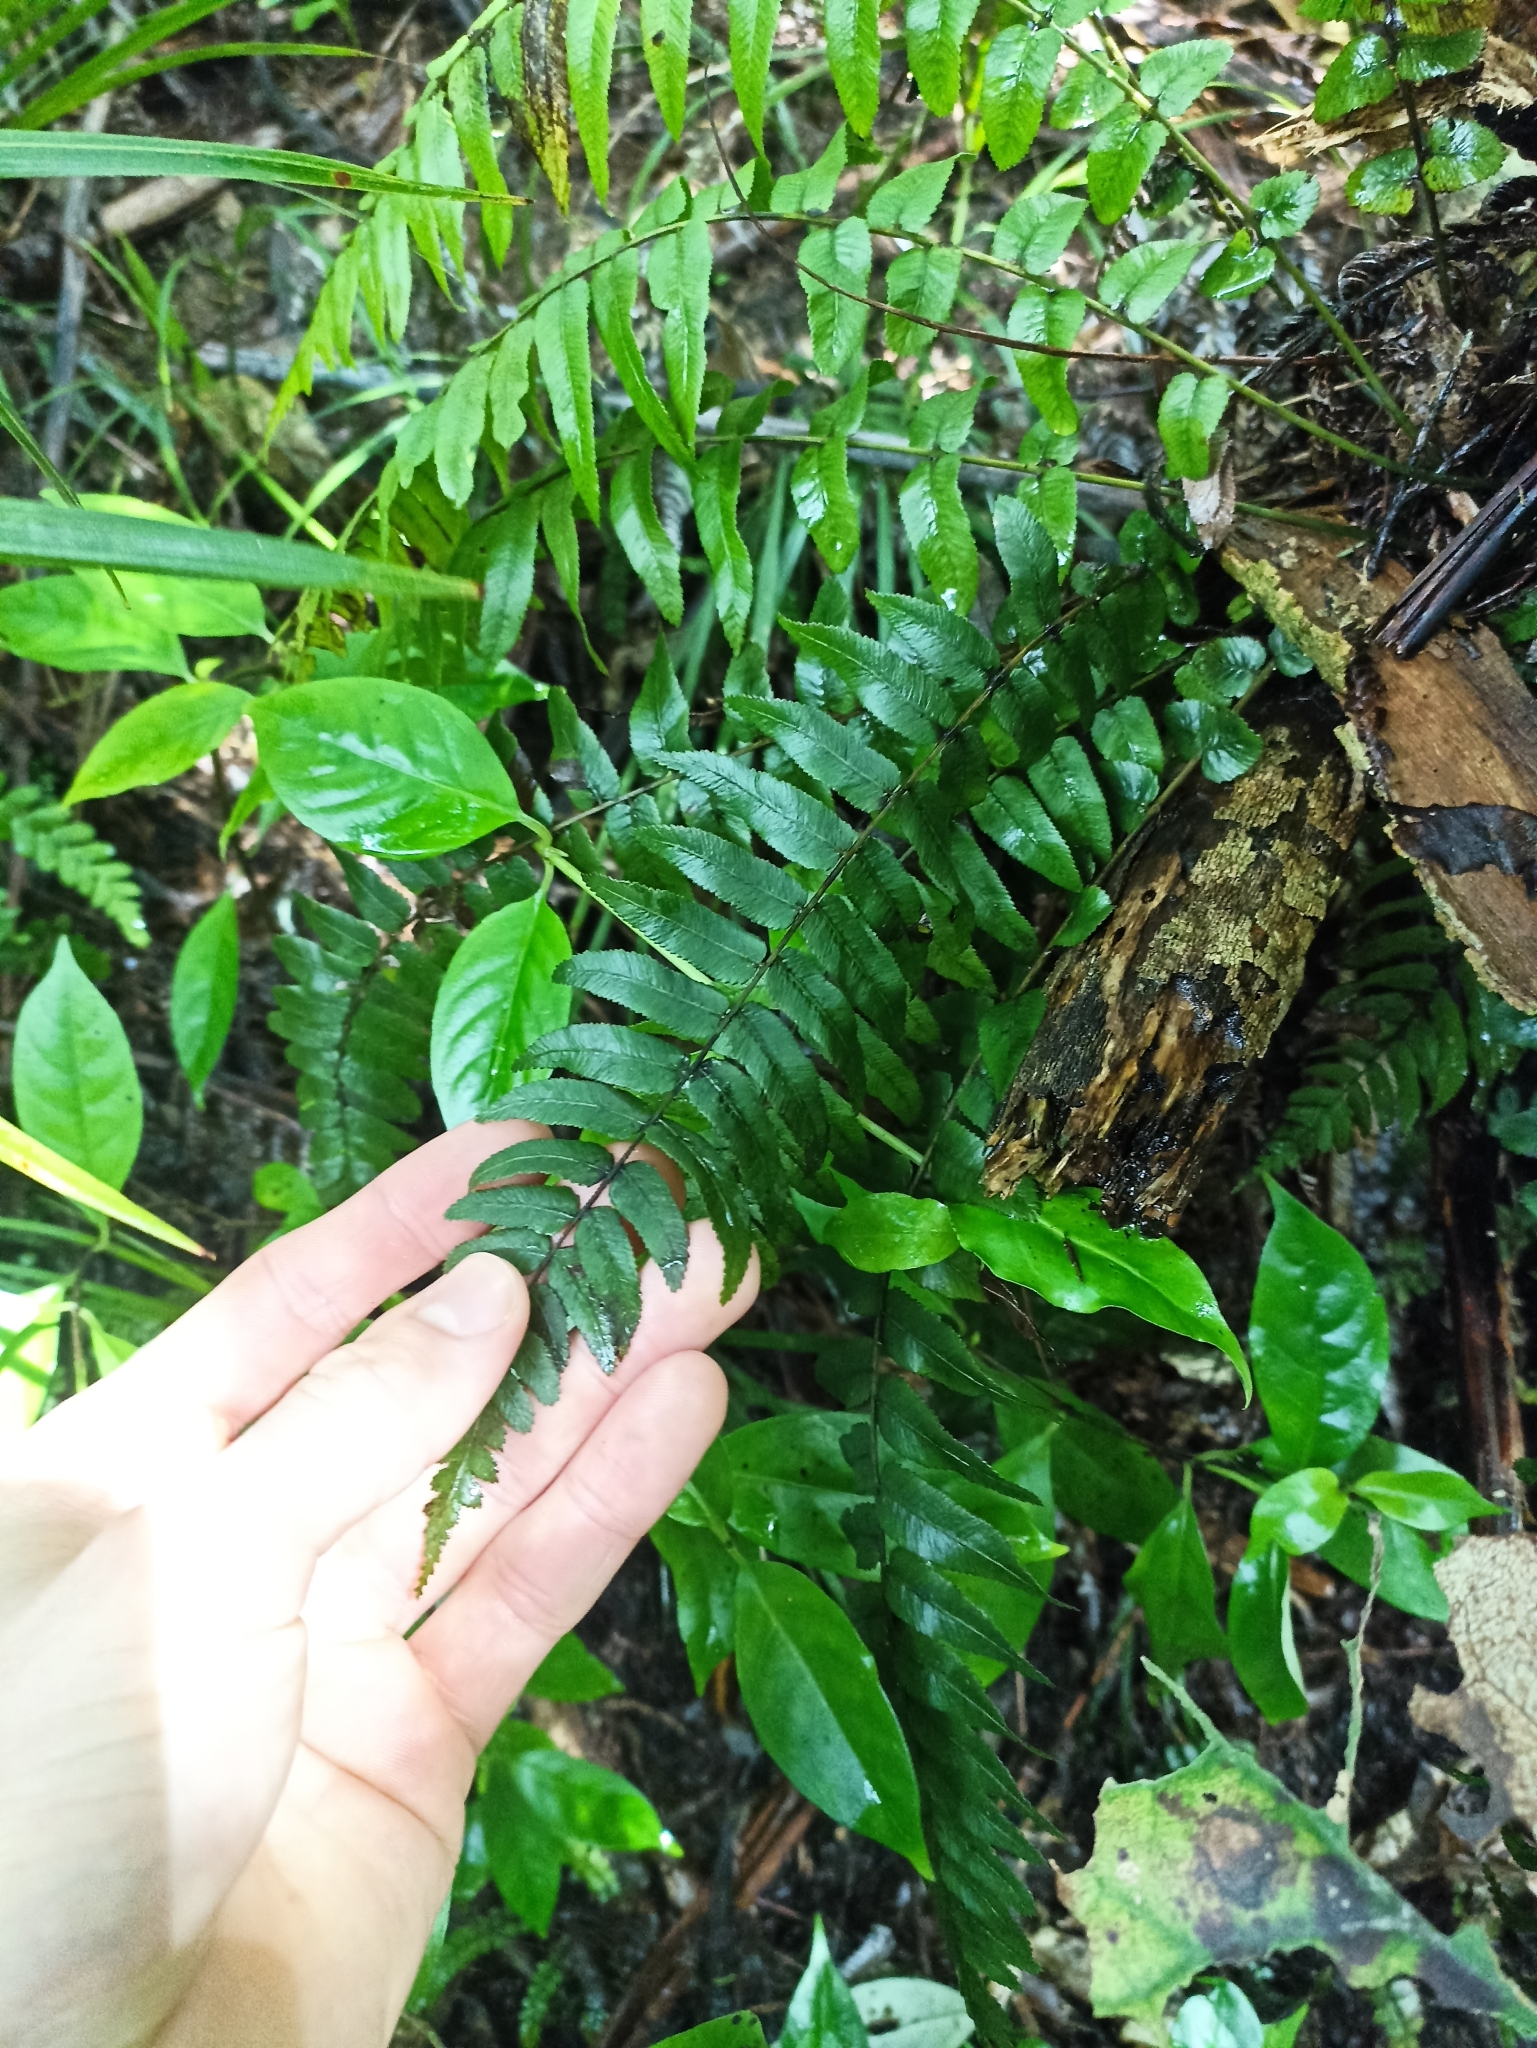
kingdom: Plantae
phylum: Tracheophyta
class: Polypodiopsida
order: Polypodiales
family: Blechnaceae
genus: Icarus
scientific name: Icarus filiformis
